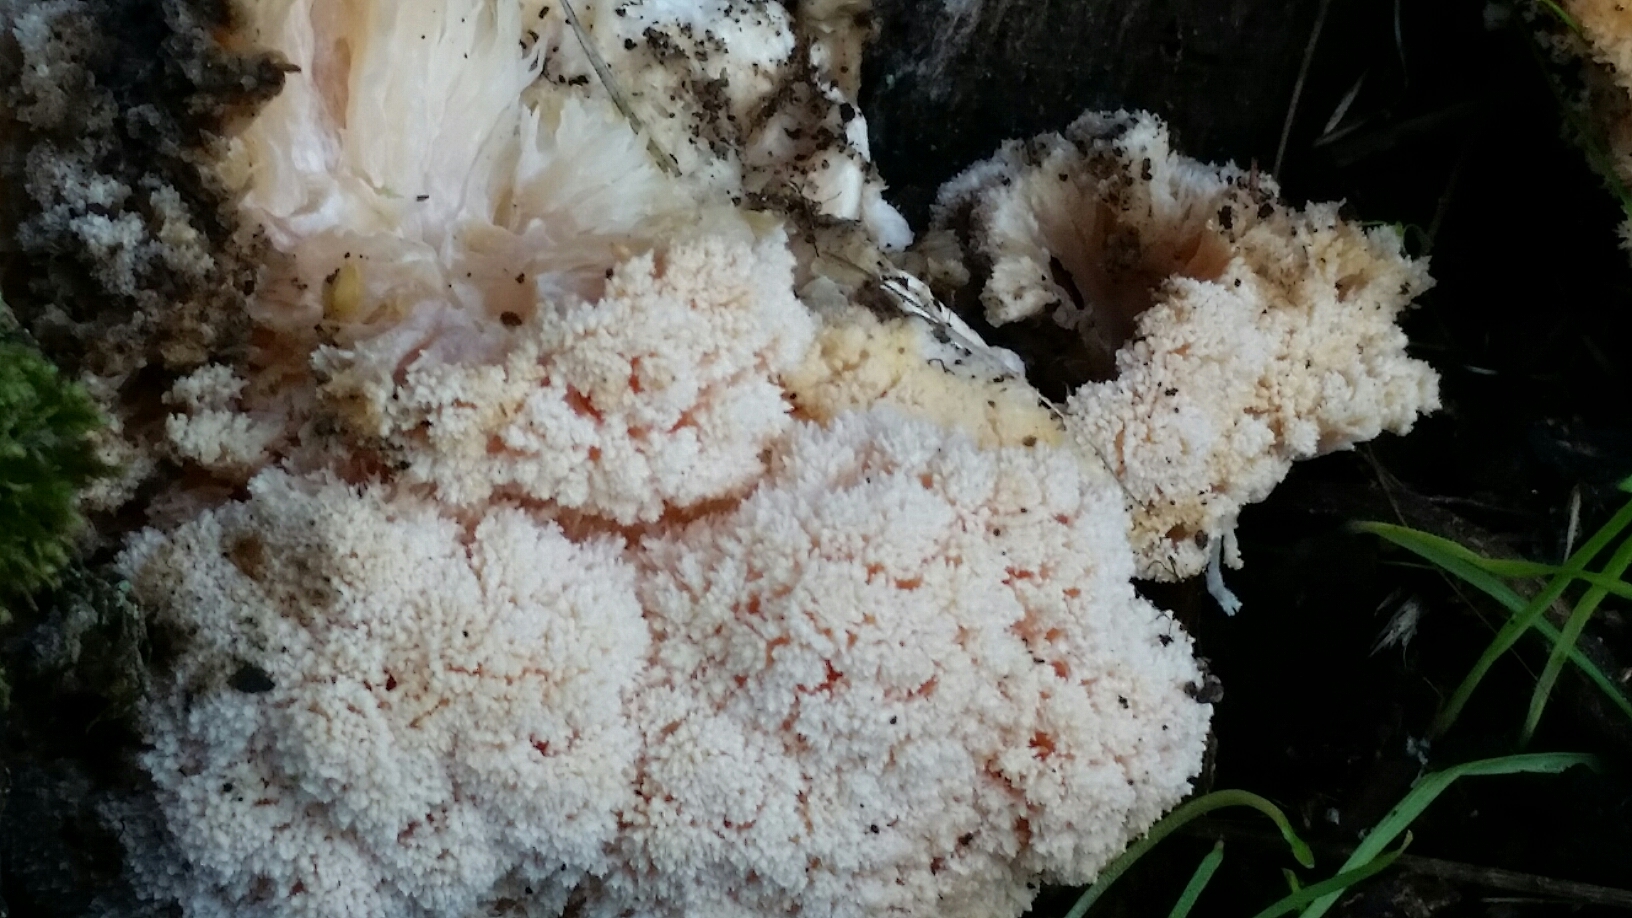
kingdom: Fungi
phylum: Basidiomycota
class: Agaricomycetes
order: Russulales
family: Hericiaceae
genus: Hericium
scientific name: Hericium coralloides
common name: Coral tooth
